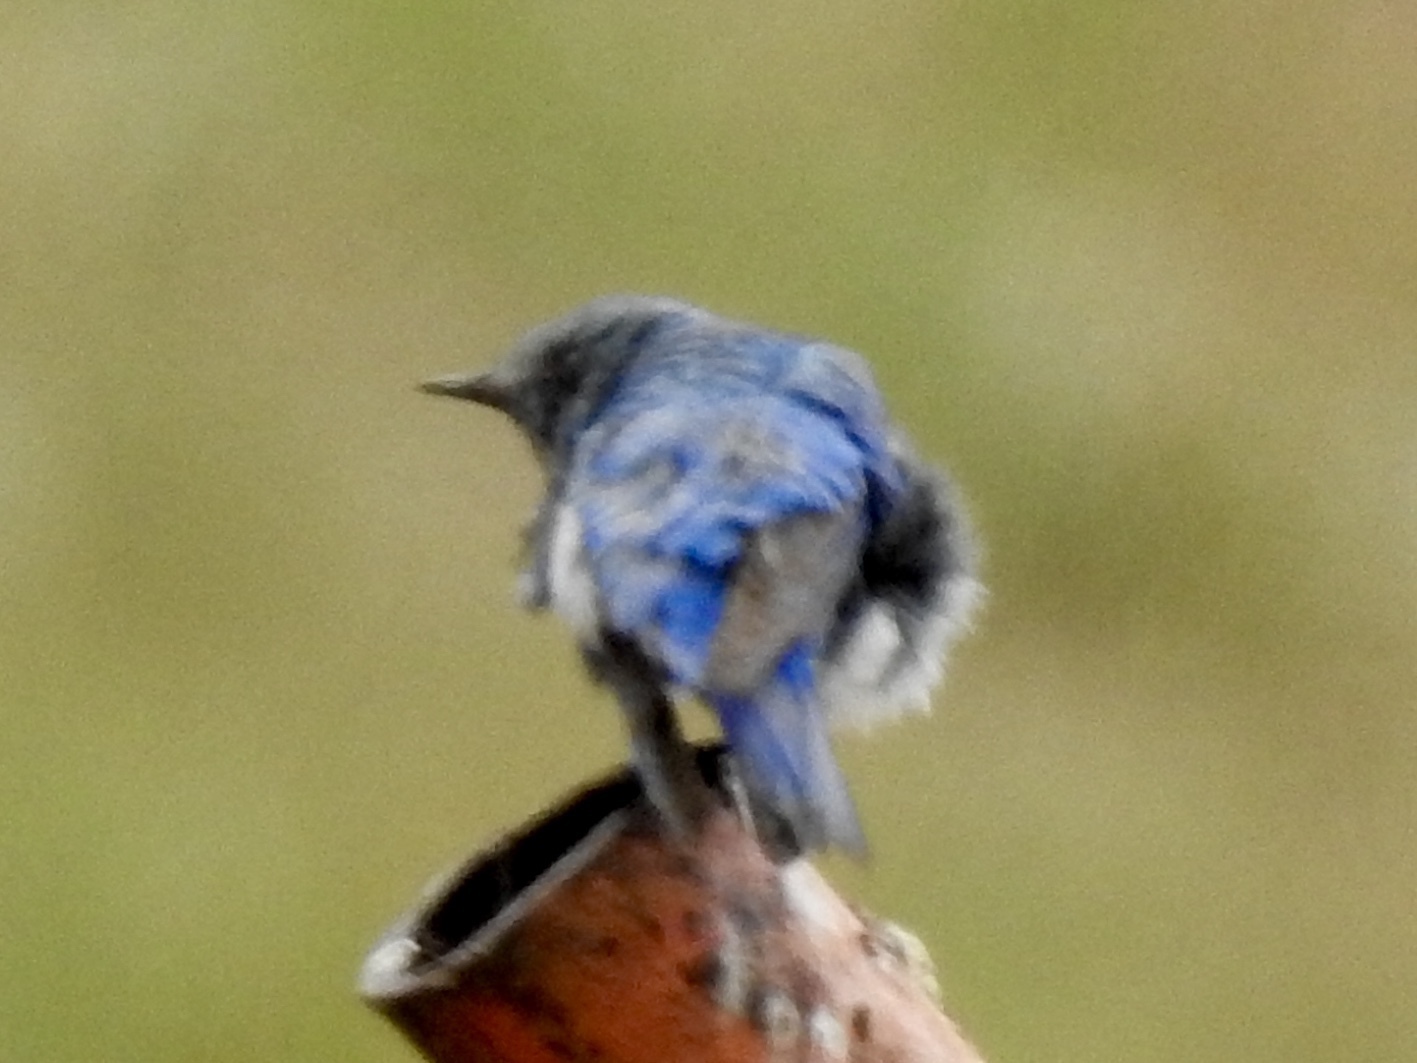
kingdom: Animalia
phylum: Chordata
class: Aves
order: Passeriformes
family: Turdidae
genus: Sialia
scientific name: Sialia currucoides
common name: Mountain bluebird
